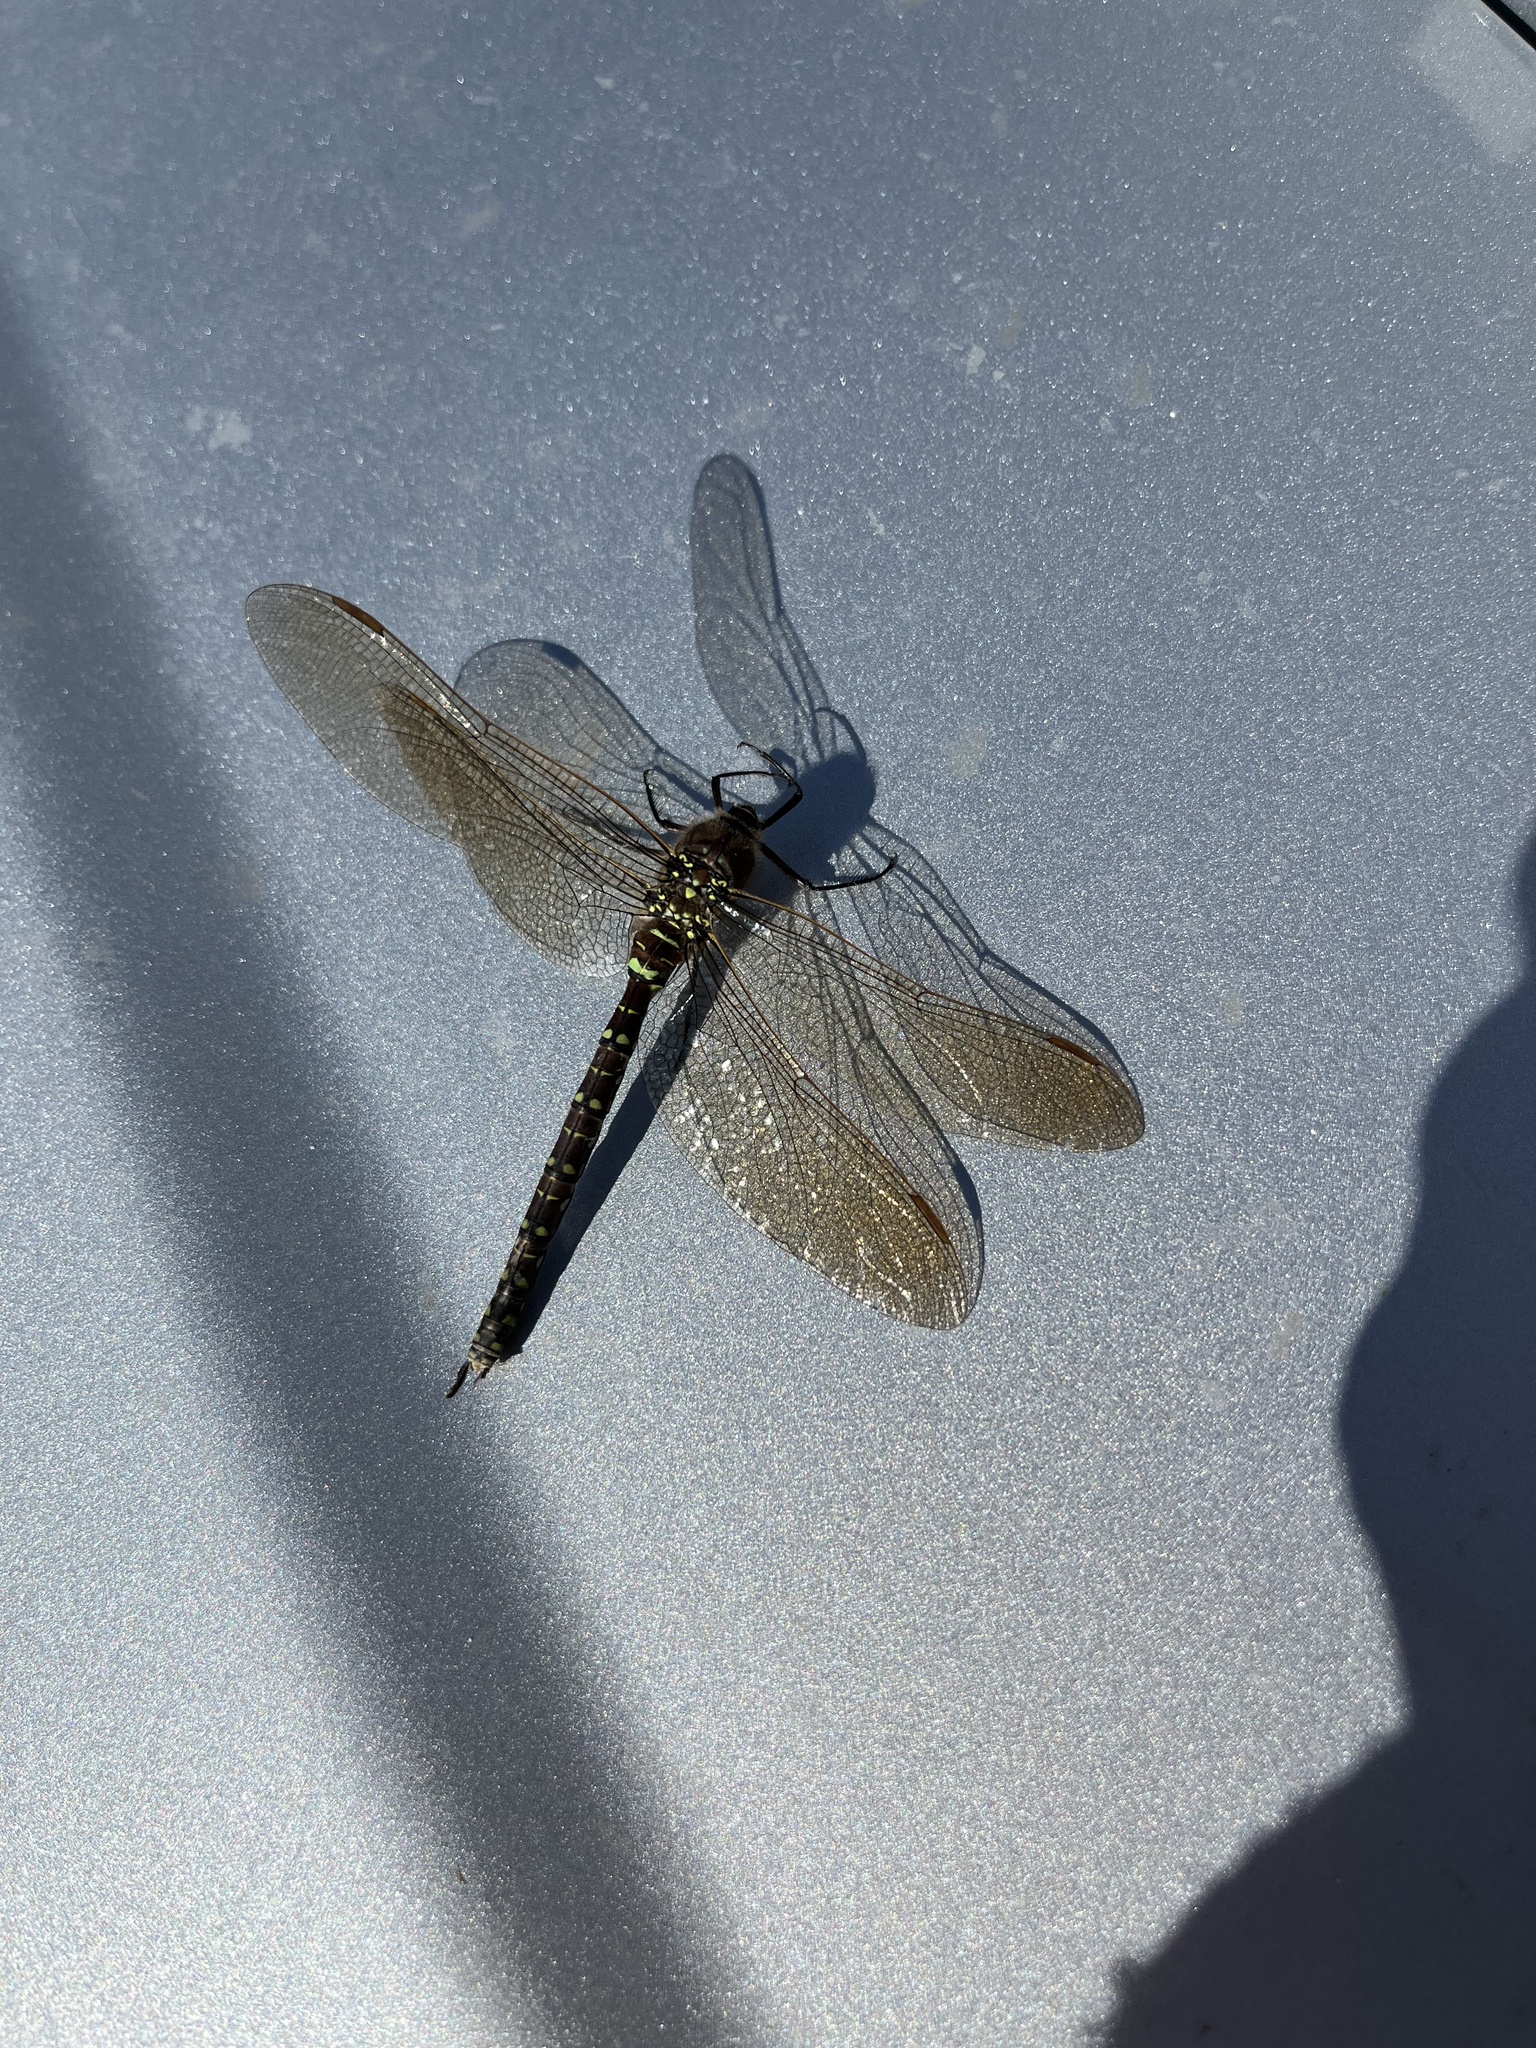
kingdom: Animalia
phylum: Arthropoda
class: Insecta
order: Odonata
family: Aeshnidae
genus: Aeshna
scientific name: Aeshna juncea
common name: Moorland hawker
